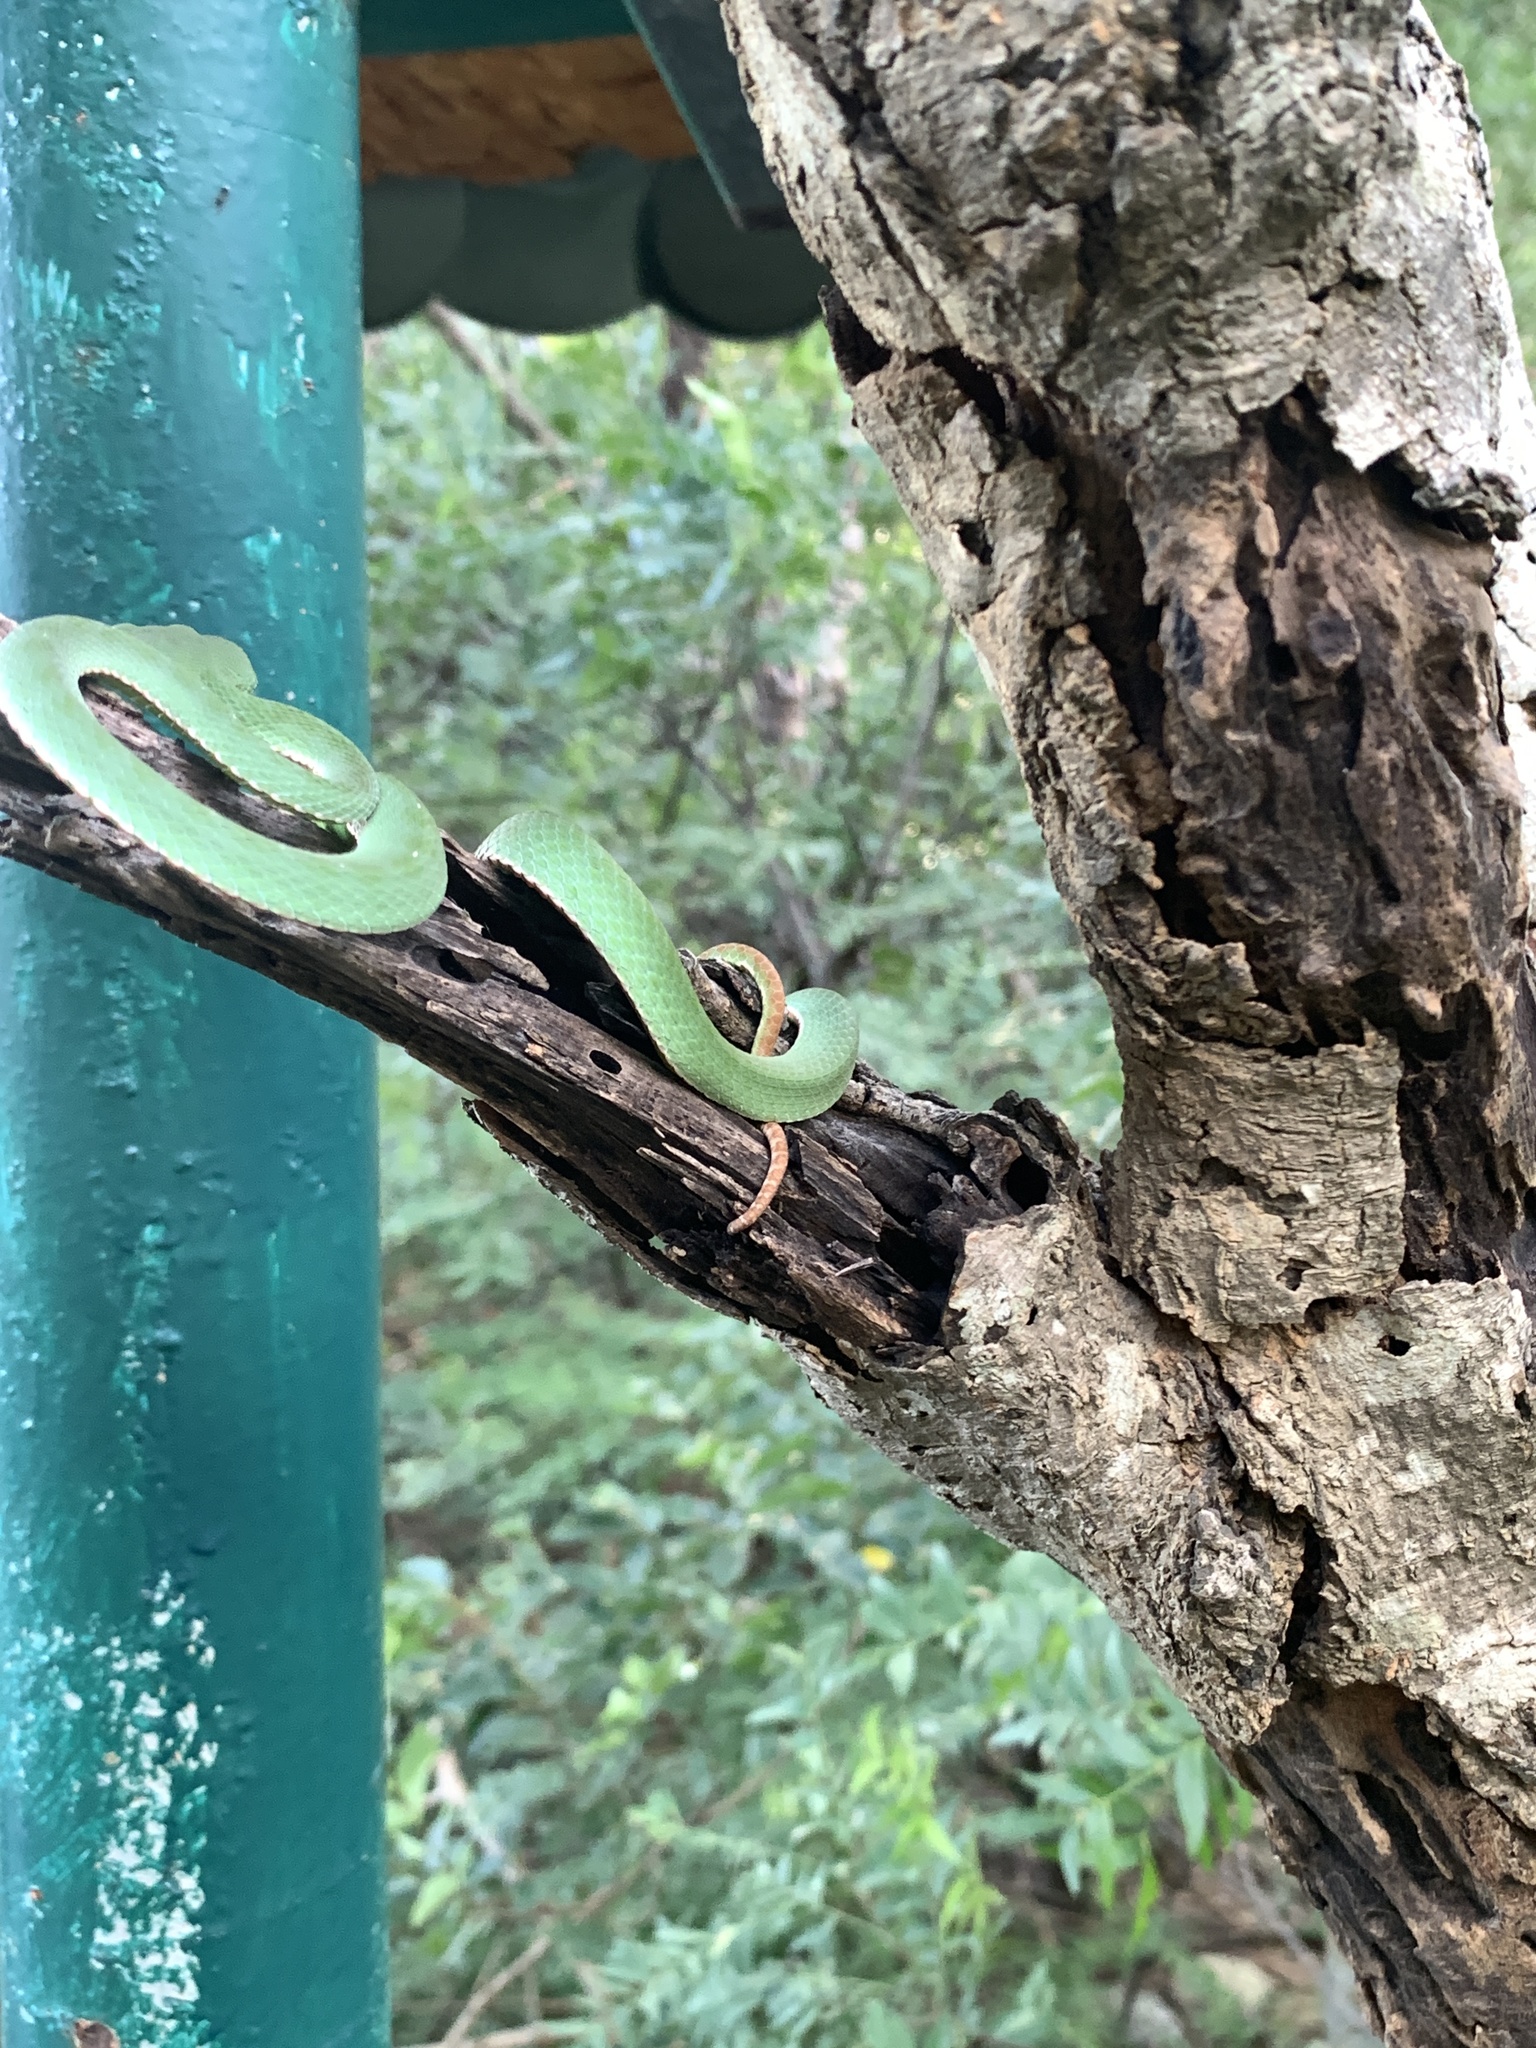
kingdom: Animalia
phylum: Chordata
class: Squamata
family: Viperidae
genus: Trimeresurus
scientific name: Trimeresurus stejnegeri
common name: Chen’s bamboo pit viper
